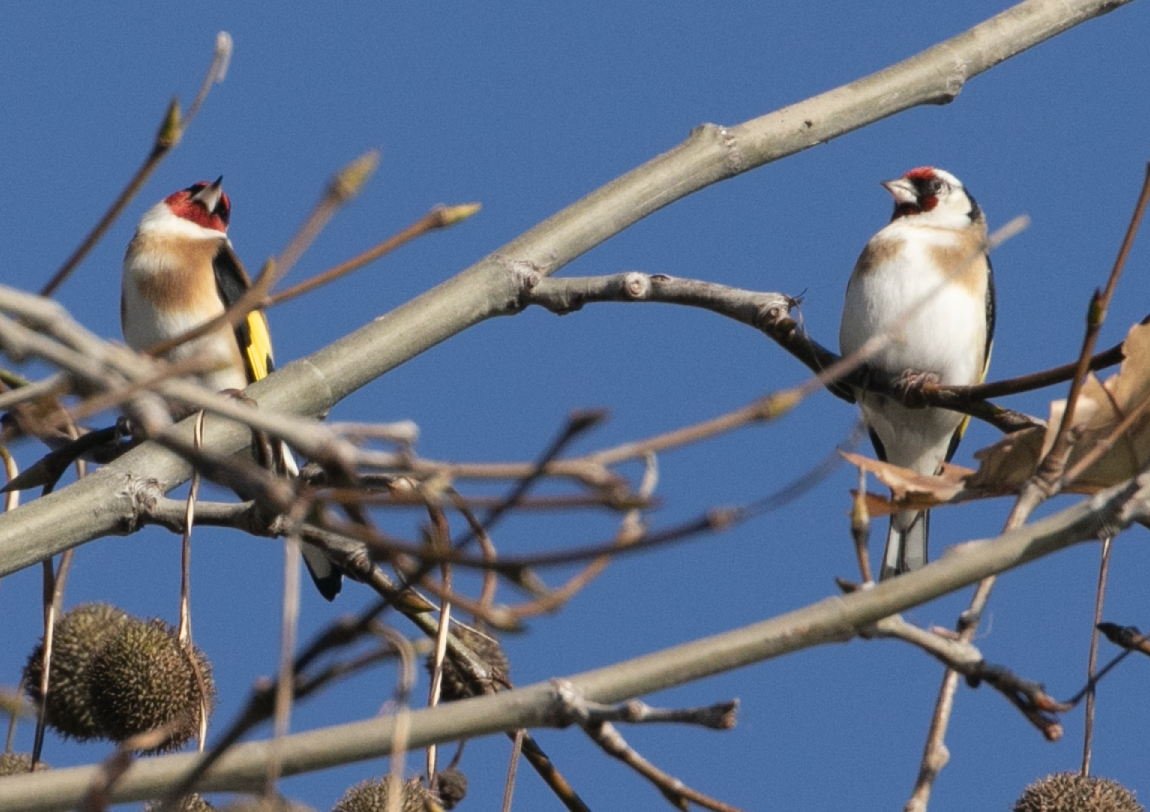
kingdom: Animalia
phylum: Chordata
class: Aves
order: Passeriformes
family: Fringillidae
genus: Carduelis
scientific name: Carduelis carduelis
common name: European goldfinch
